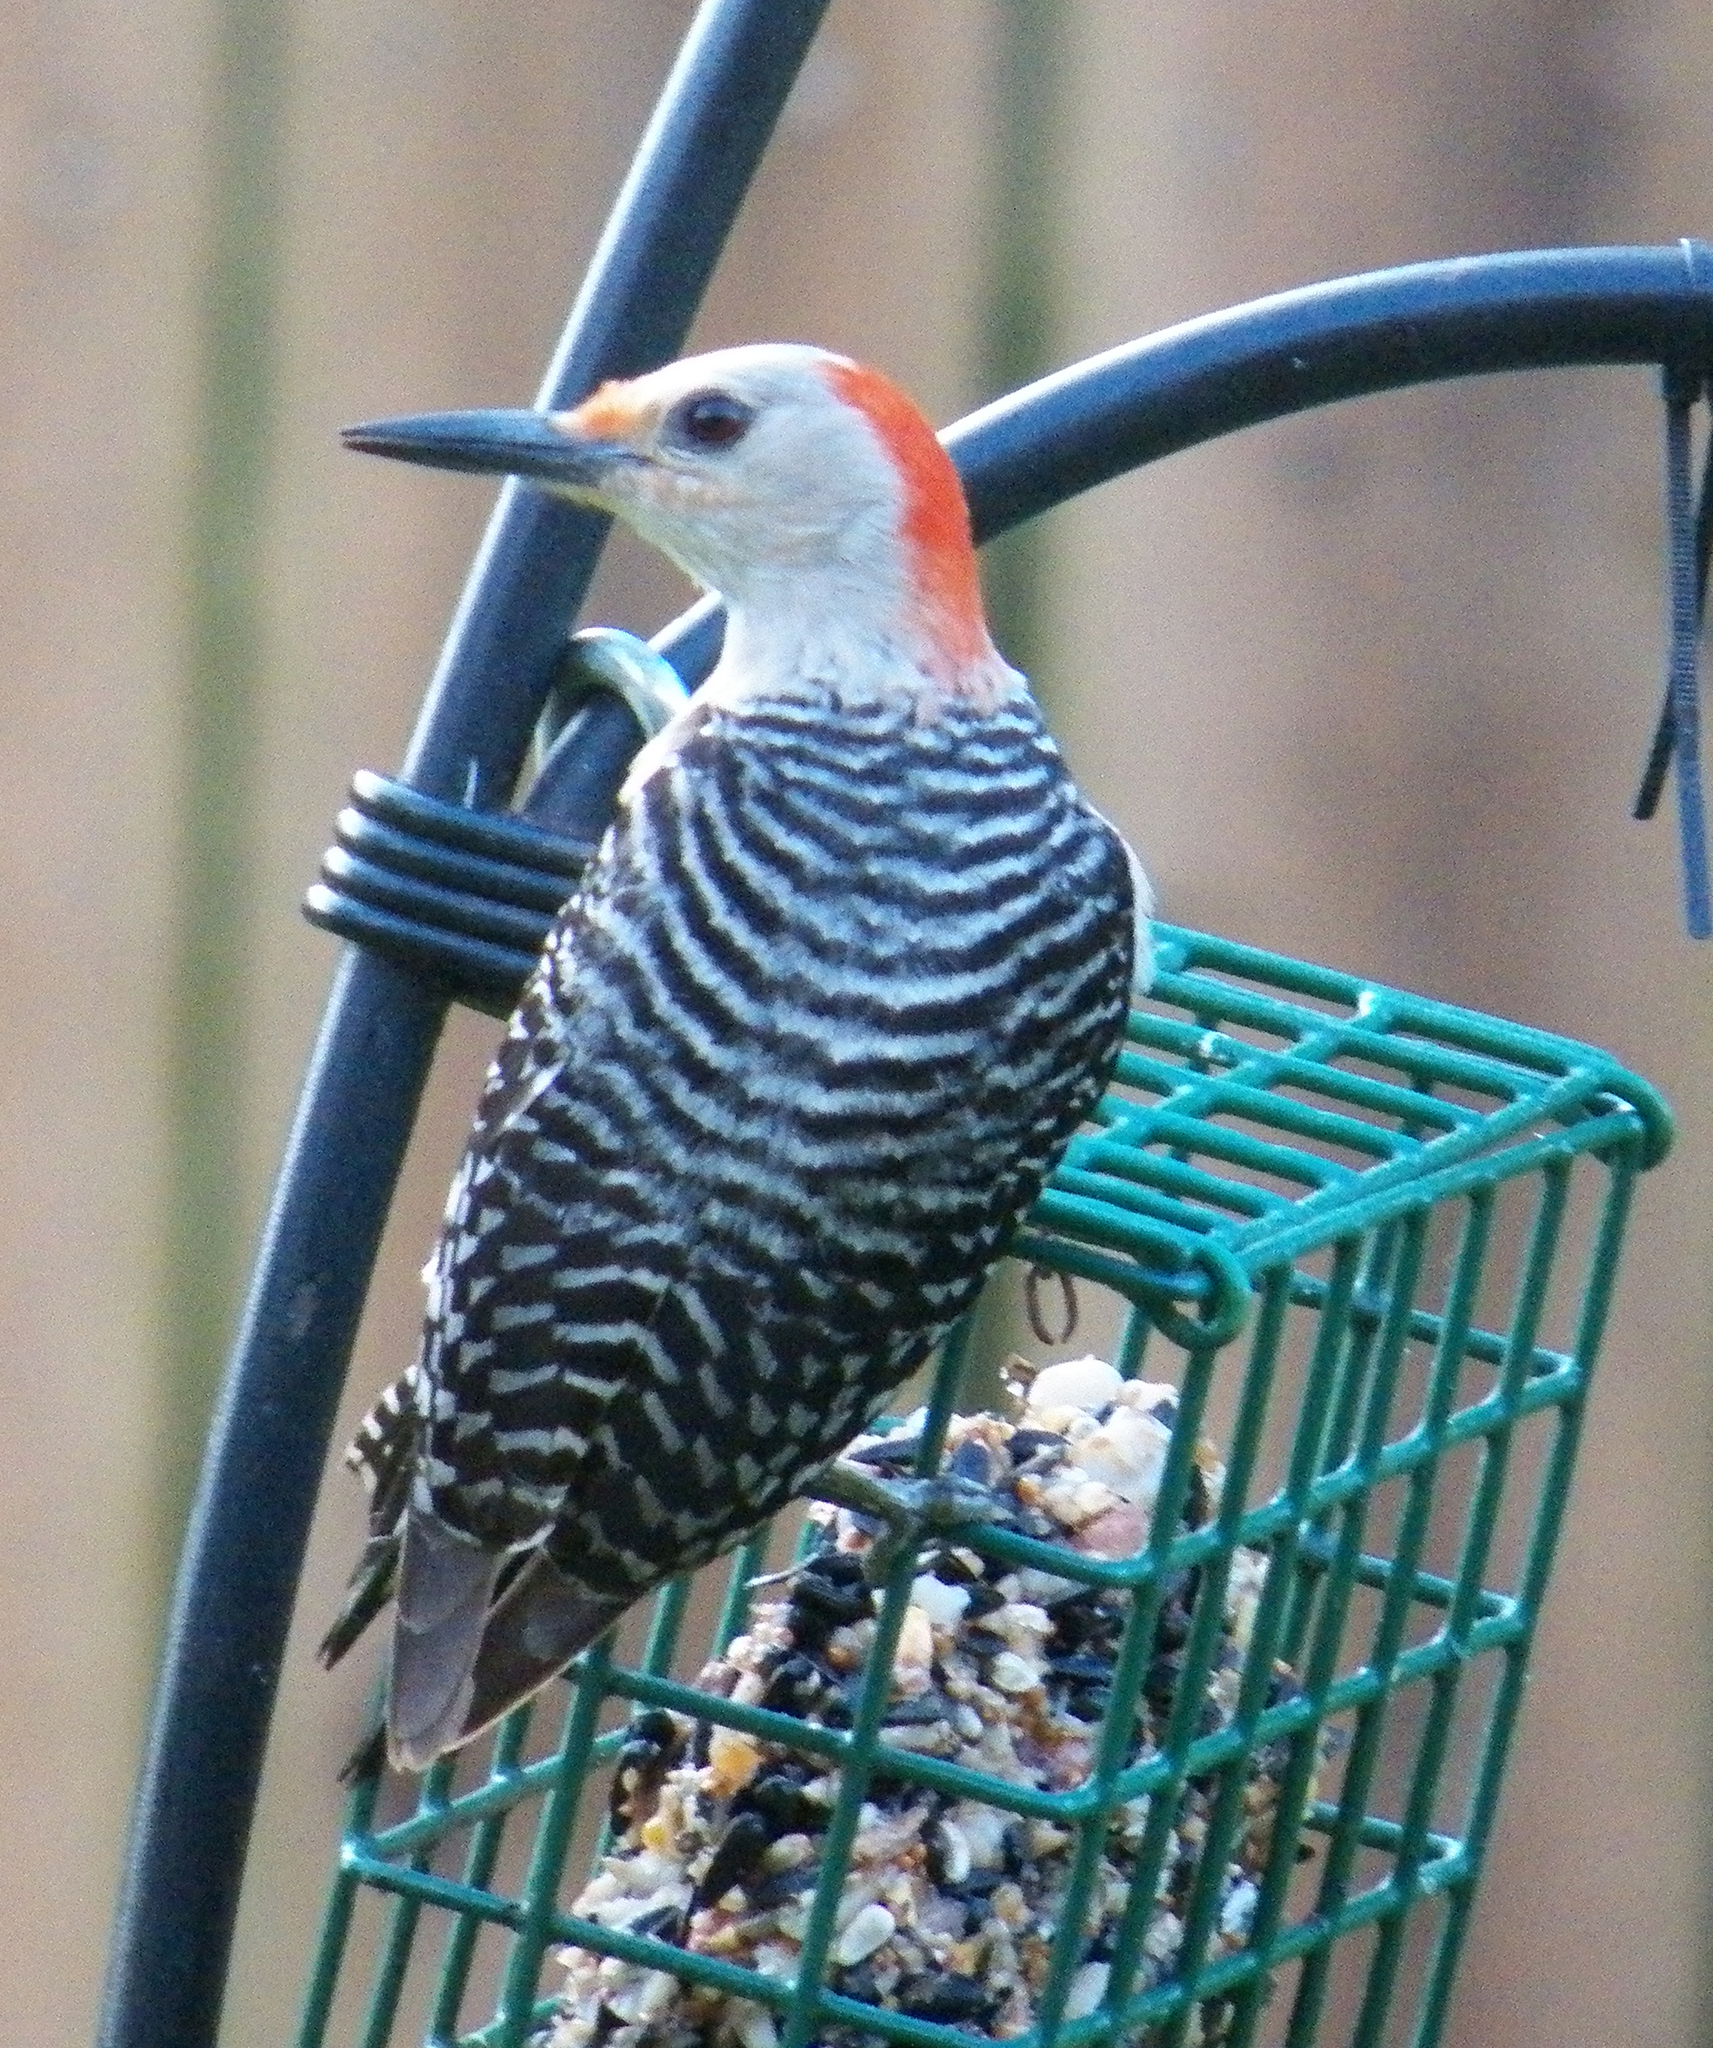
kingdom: Animalia
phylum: Chordata
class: Aves
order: Piciformes
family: Picidae
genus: Melanerpes
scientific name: Melanerpes carolinus
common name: Red-bellied woodpecker
